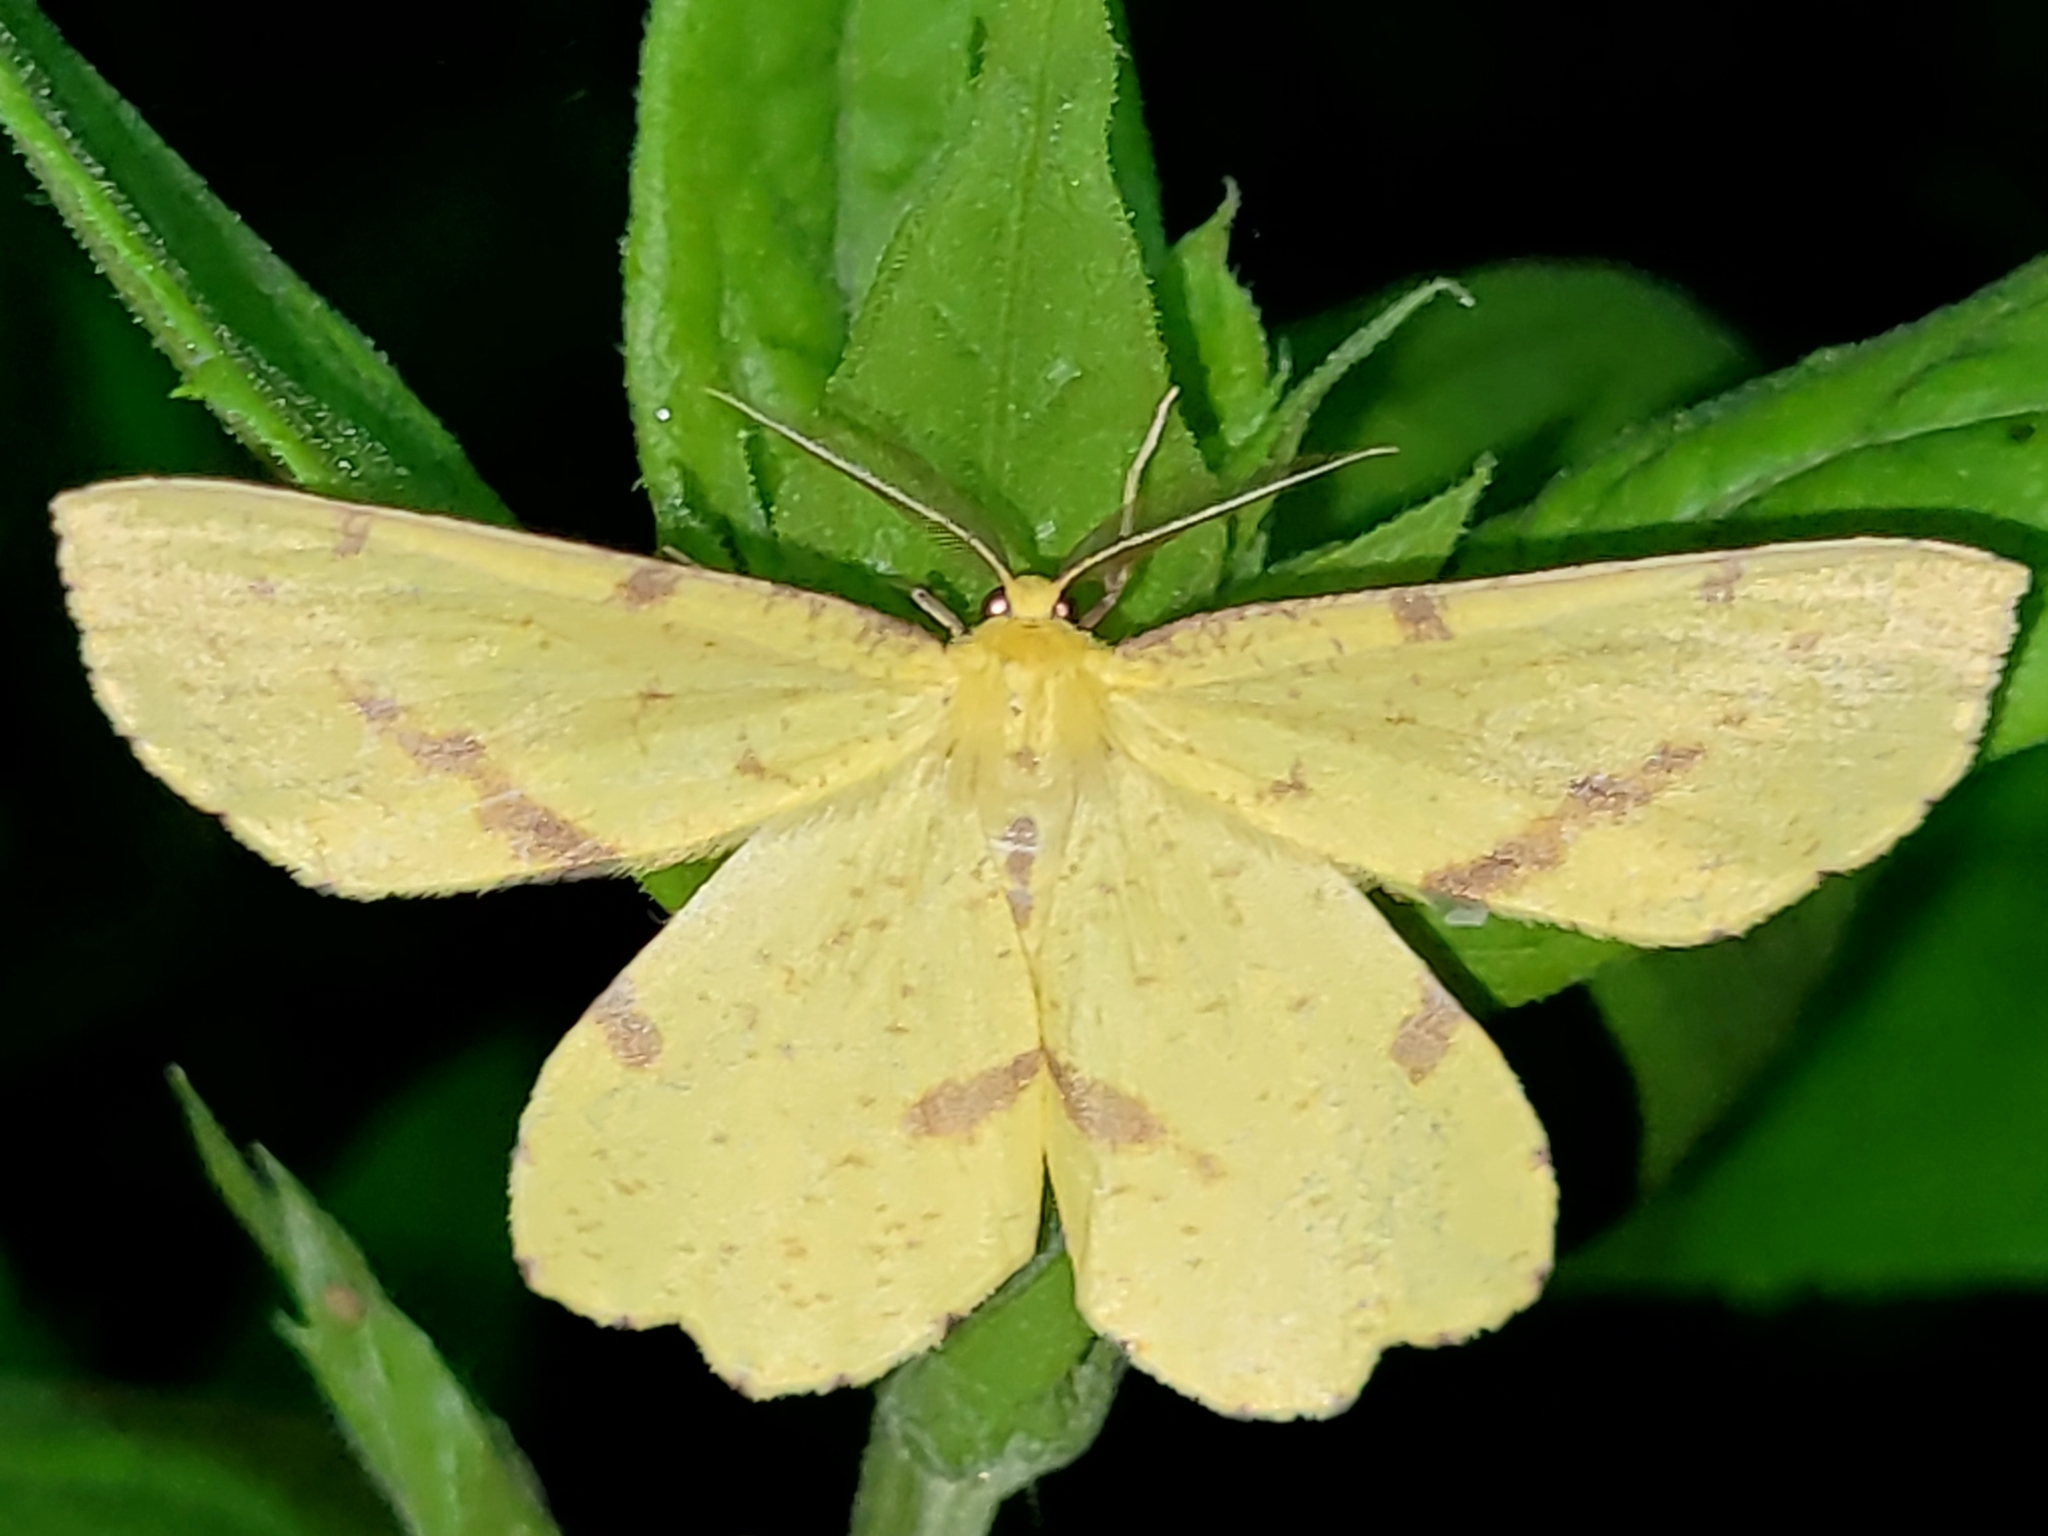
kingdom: Animalia
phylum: Arthropoda
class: Insecta
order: Lepidoptera
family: Geometridae
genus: Xanthotype
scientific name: Xanthotype
